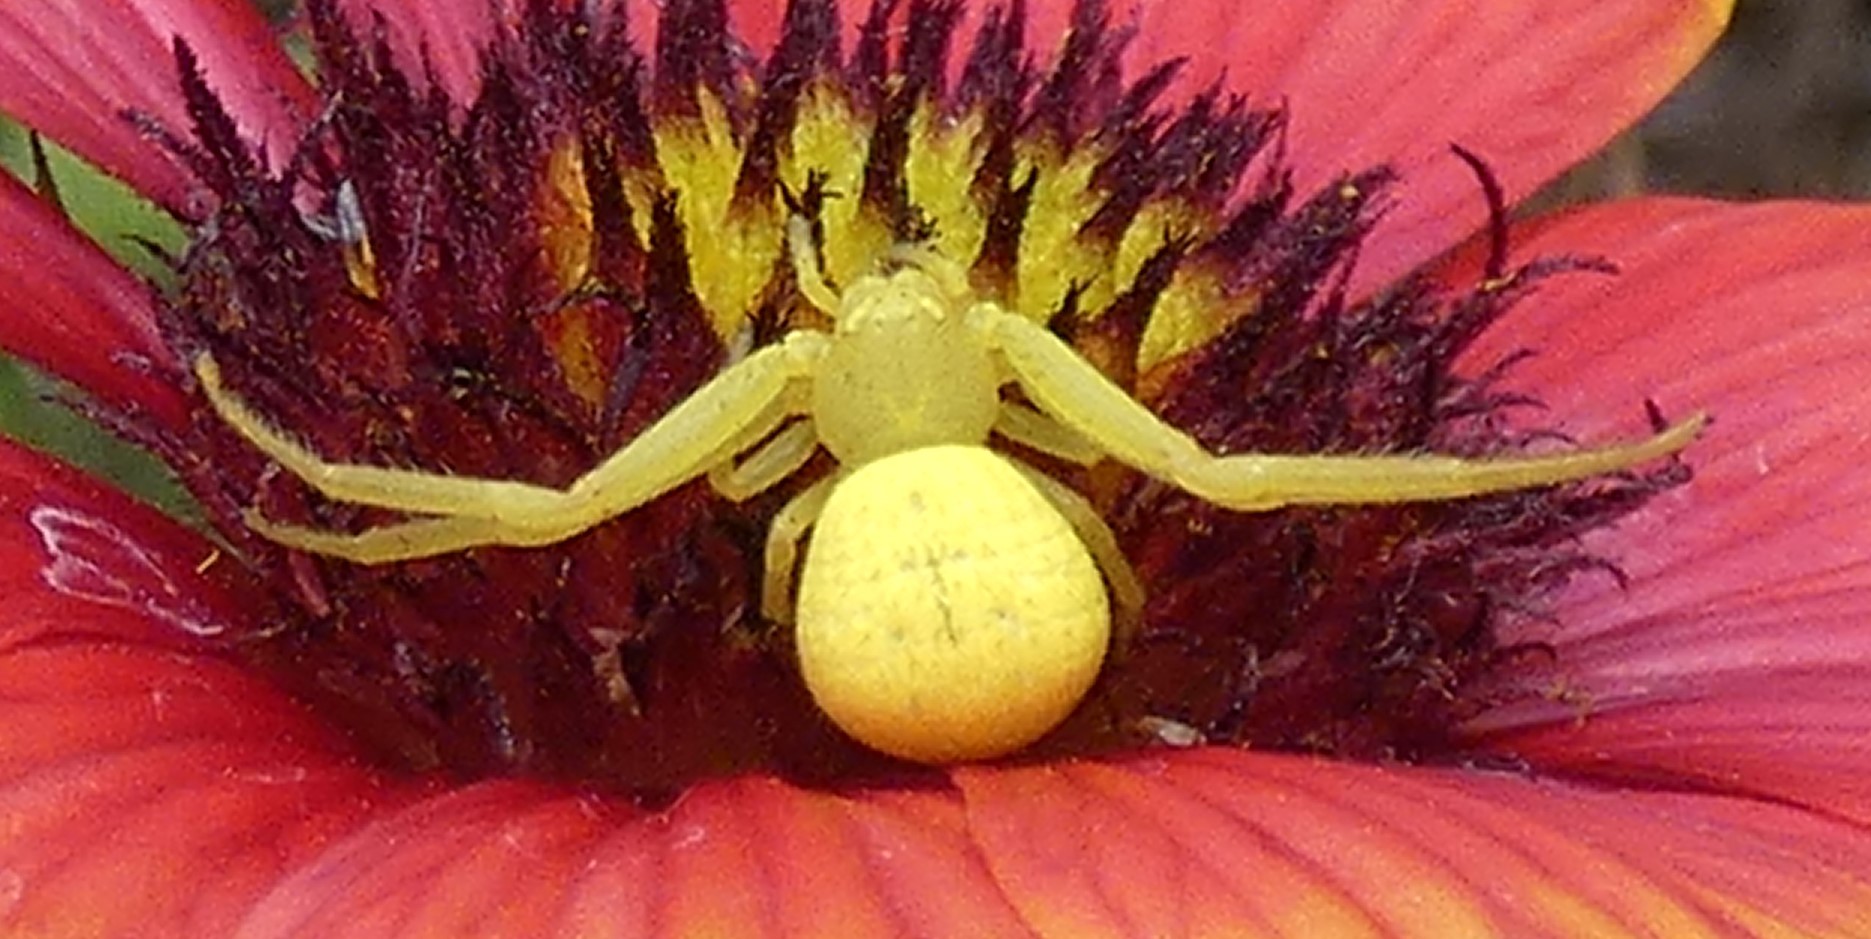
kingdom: Animalia
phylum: Arthropoda
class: Arachnida
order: Araneae
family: Thomisidae
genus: Misumessus
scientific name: Misumessus oblongus
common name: American green crab spider
